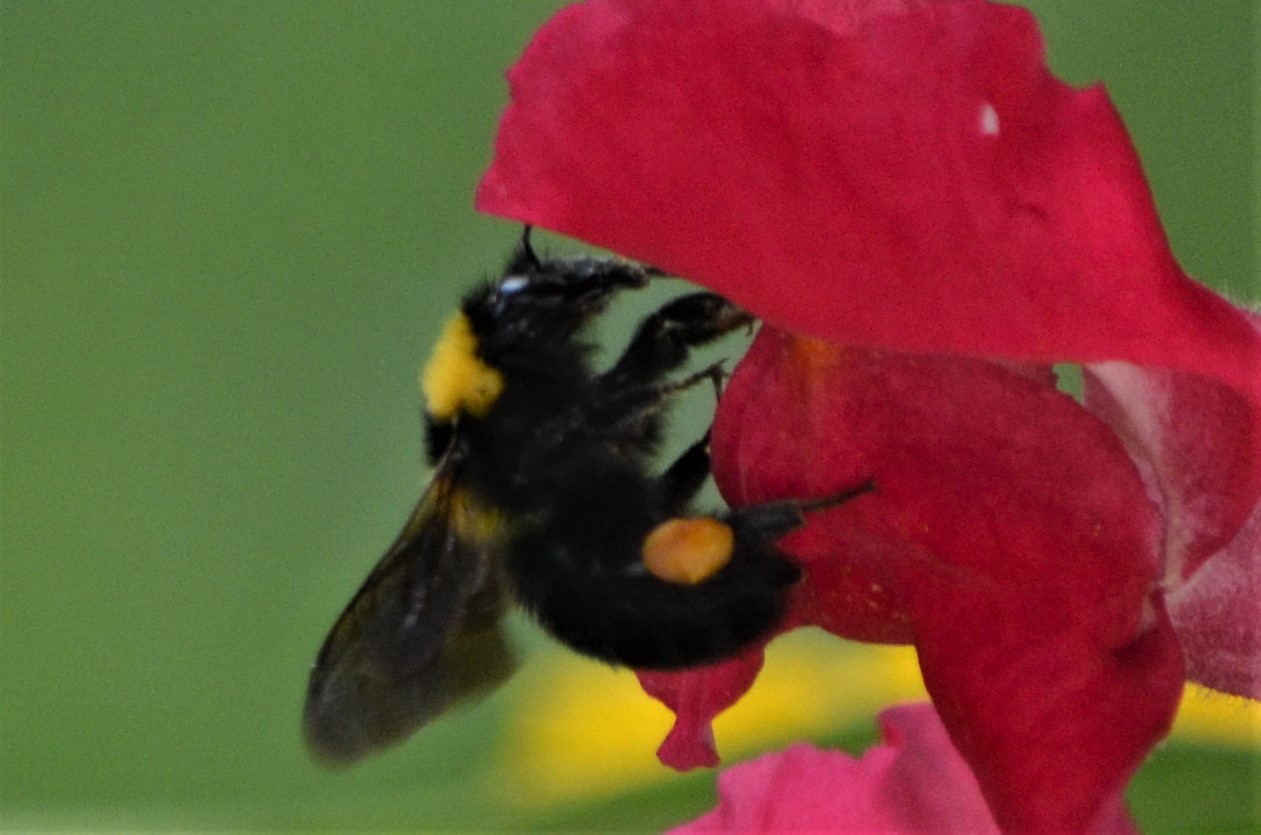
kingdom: Animalia
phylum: Arthropoda
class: Insecta
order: Hymenoptera
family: Apidae
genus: Bombus
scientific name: Bombus argillaceus
